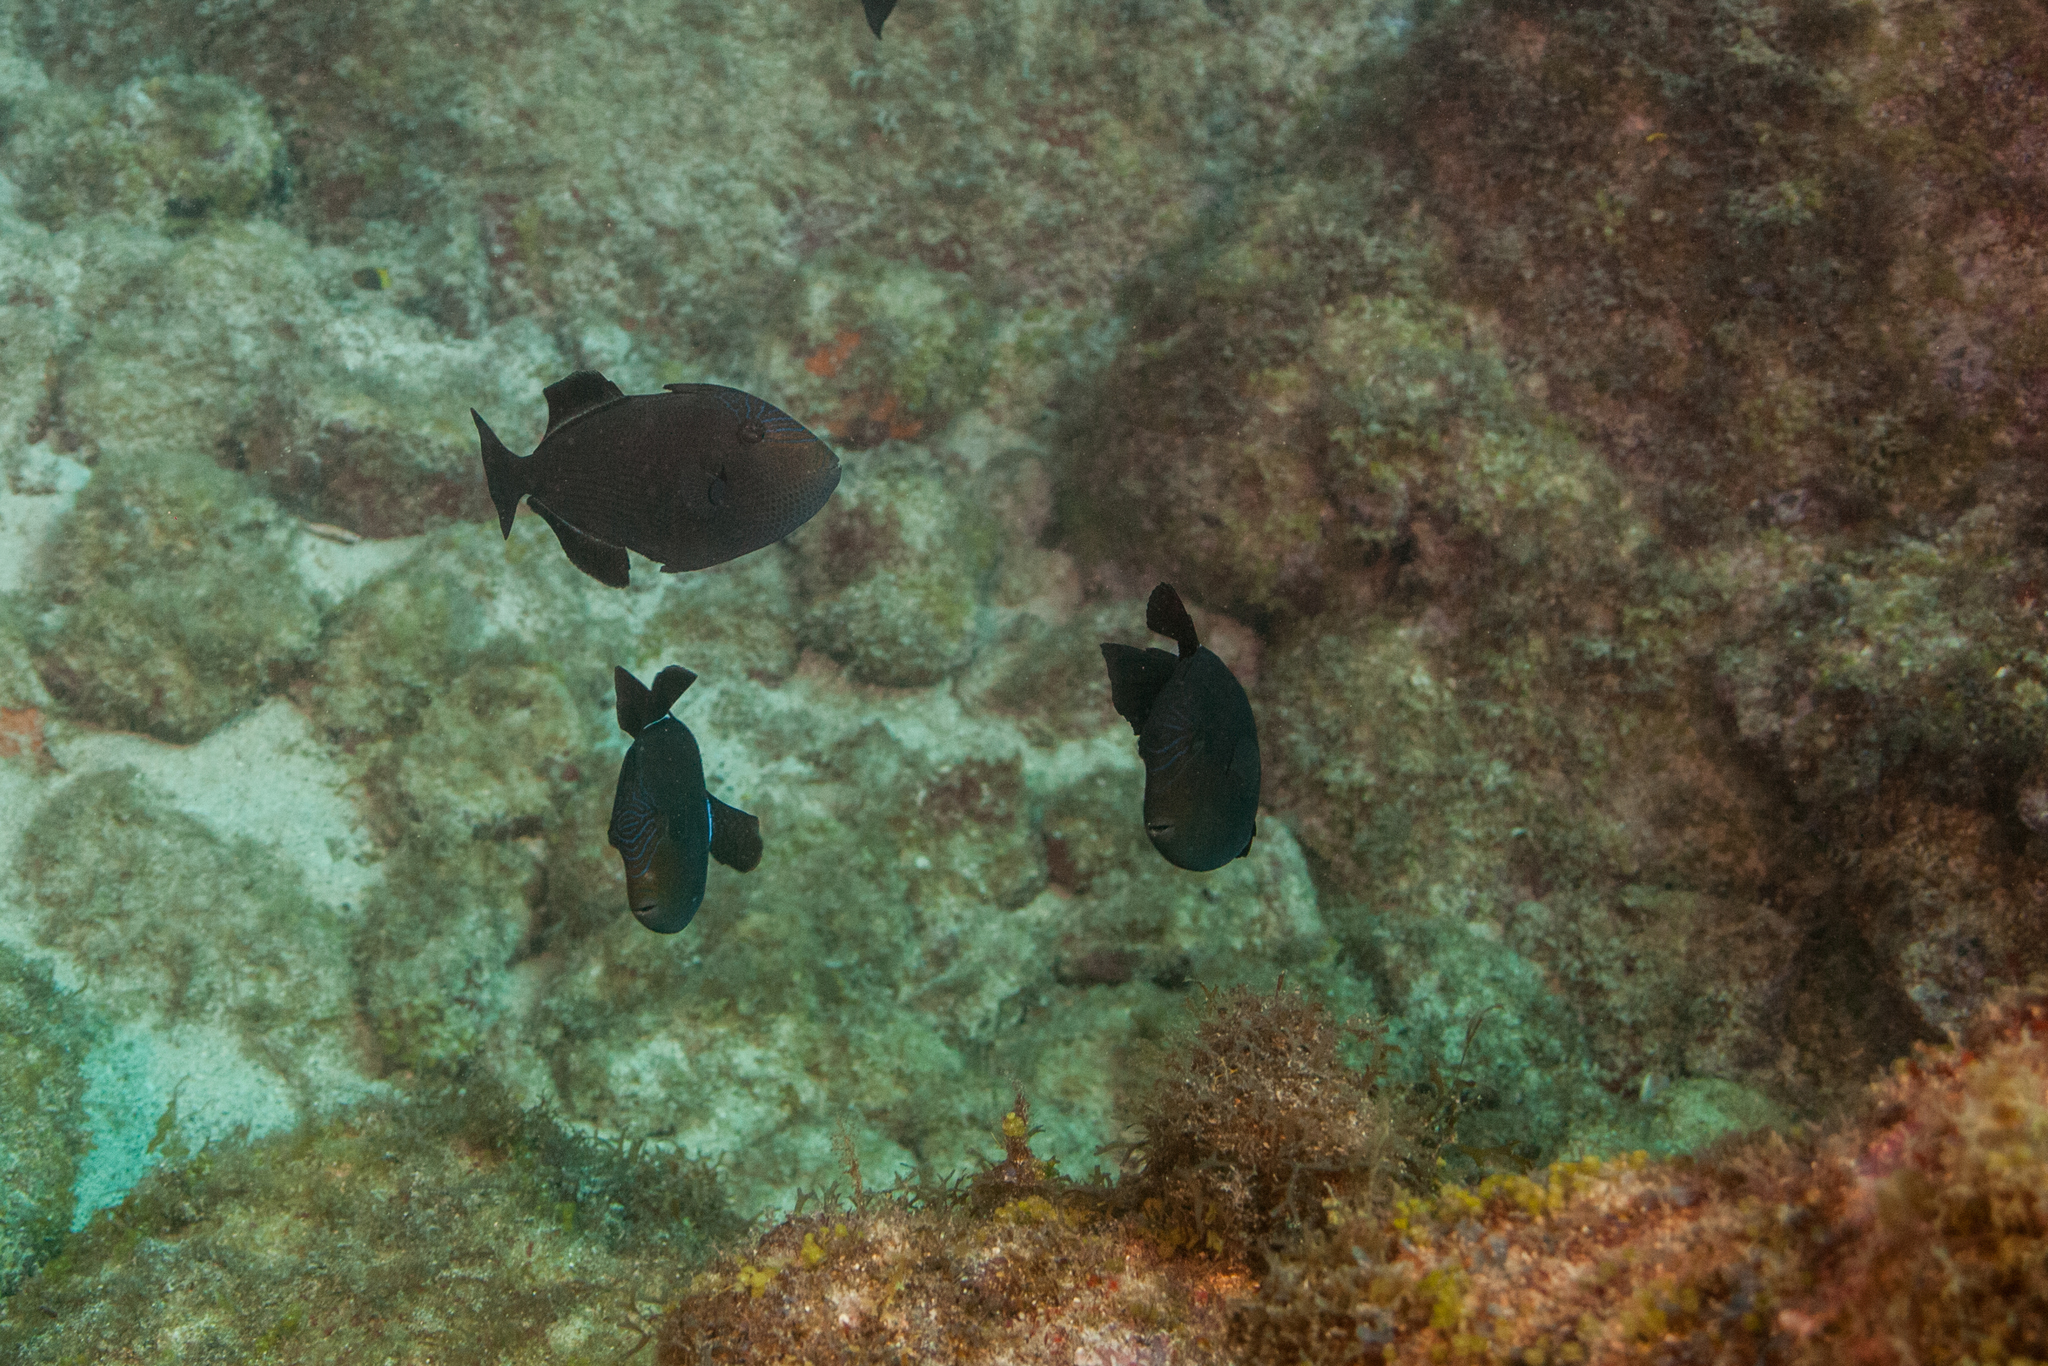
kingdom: Animalia
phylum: Chordata
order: Tetraodontiformes
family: Balistidae
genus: Melichthys
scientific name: Melichthys niger
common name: Black durgon
